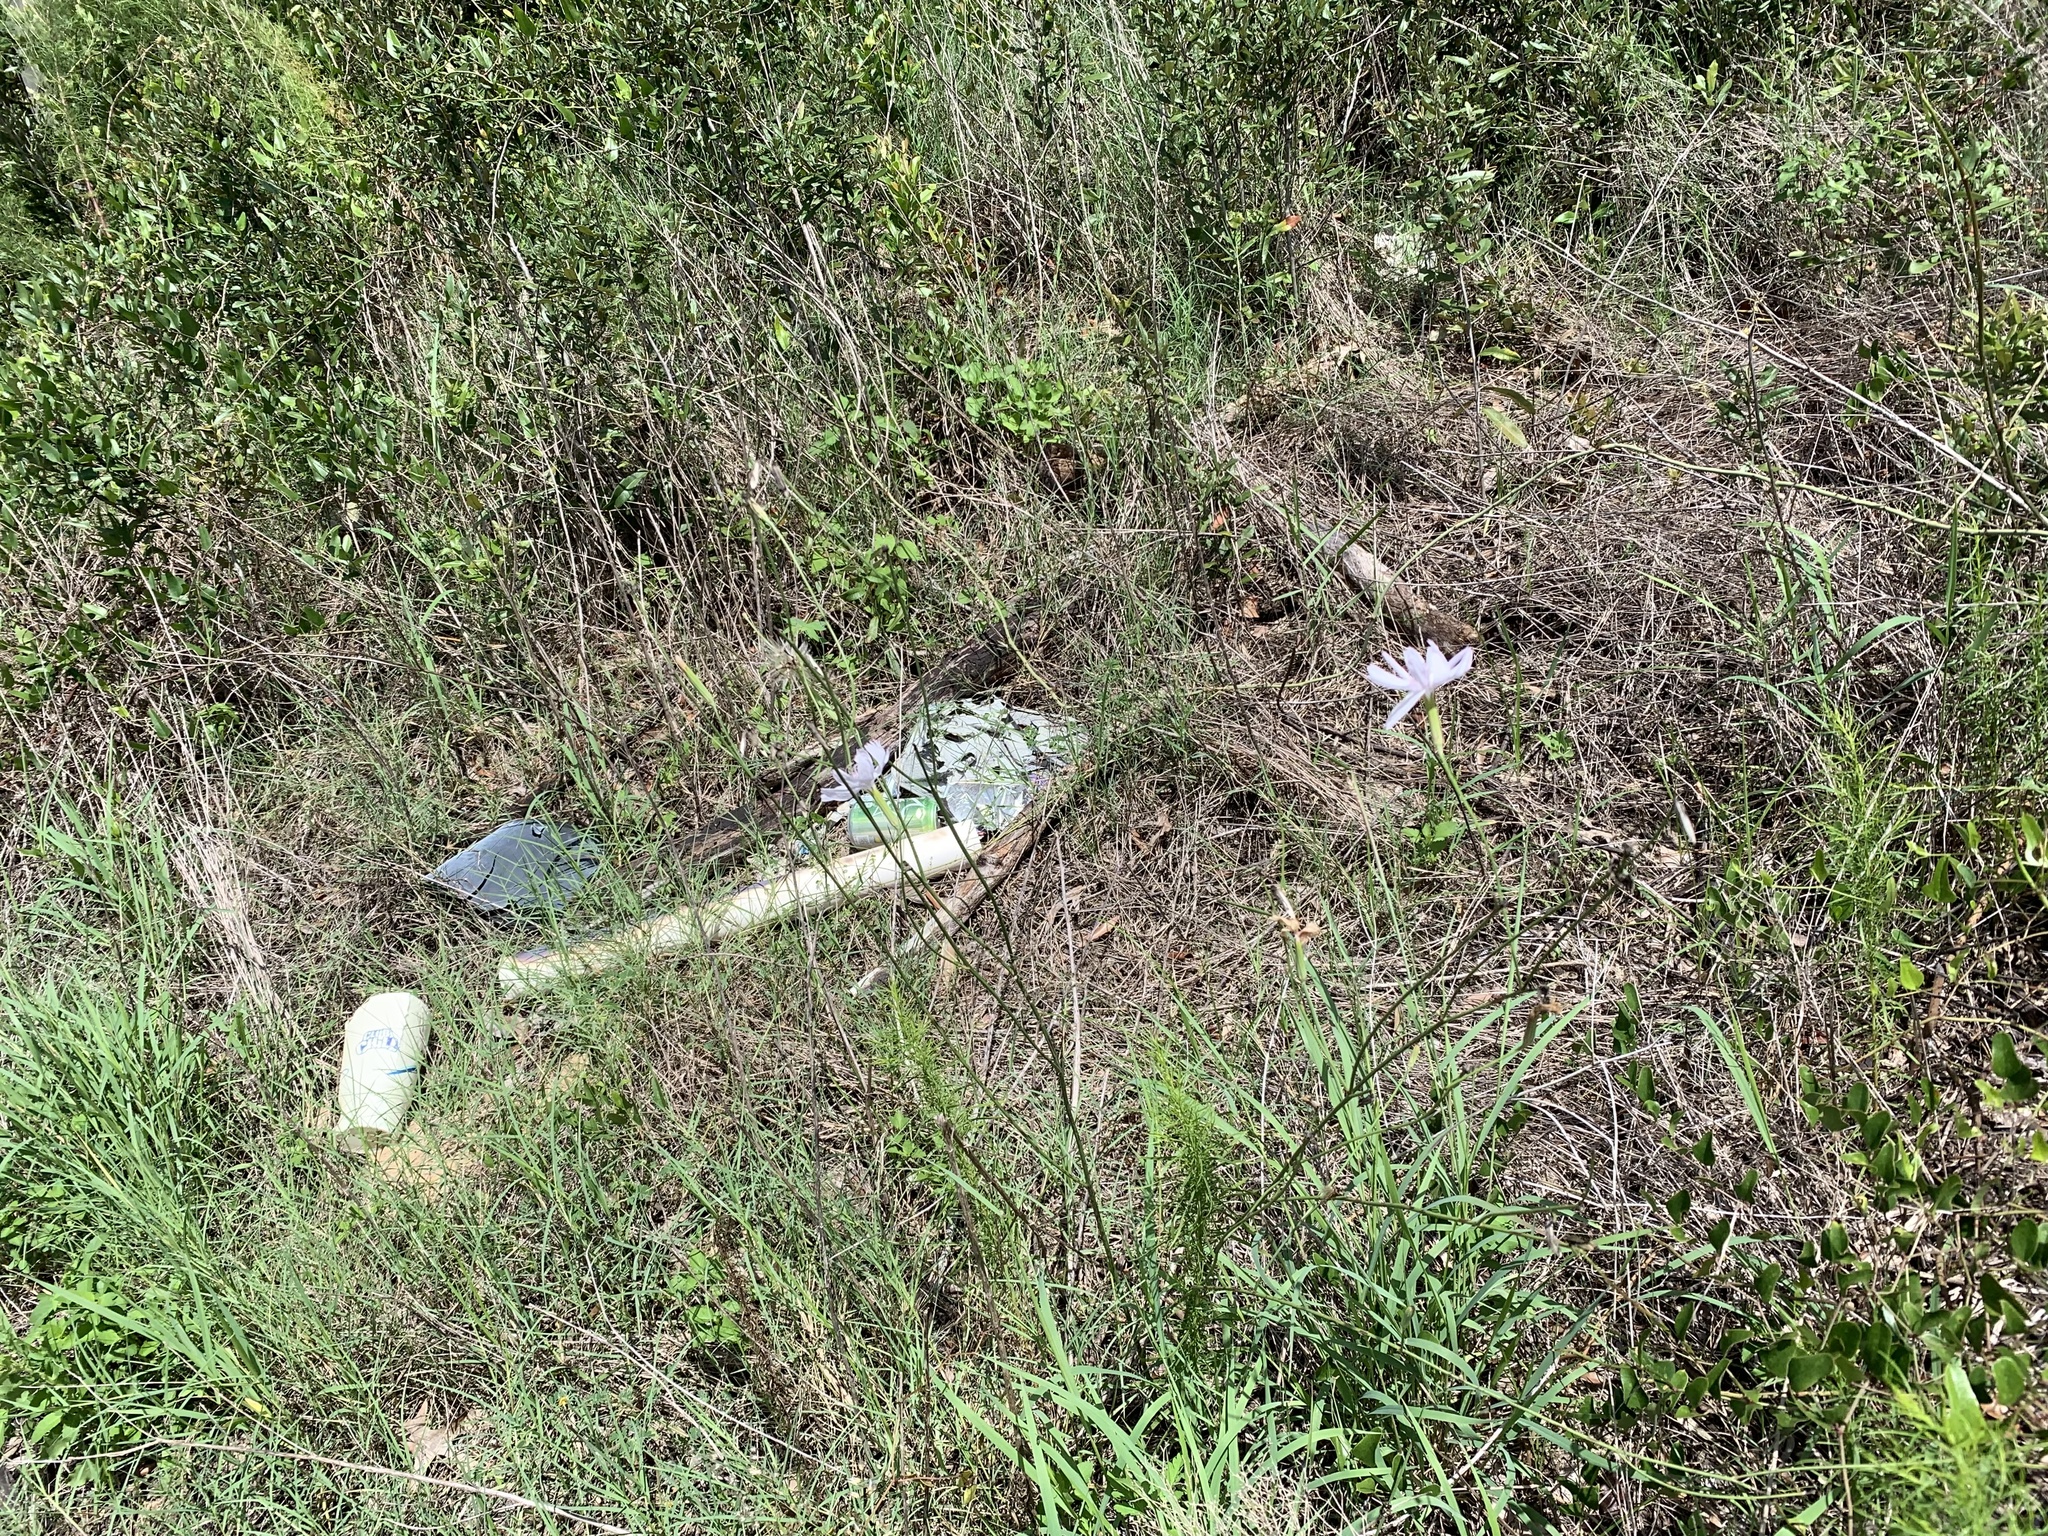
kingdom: Plantae
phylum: Tracheophyta
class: Magnoliopsida
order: Asterales
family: Asteraceae
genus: Lygodesmia
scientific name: Lygodesmia aphylla
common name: Rose-rush
